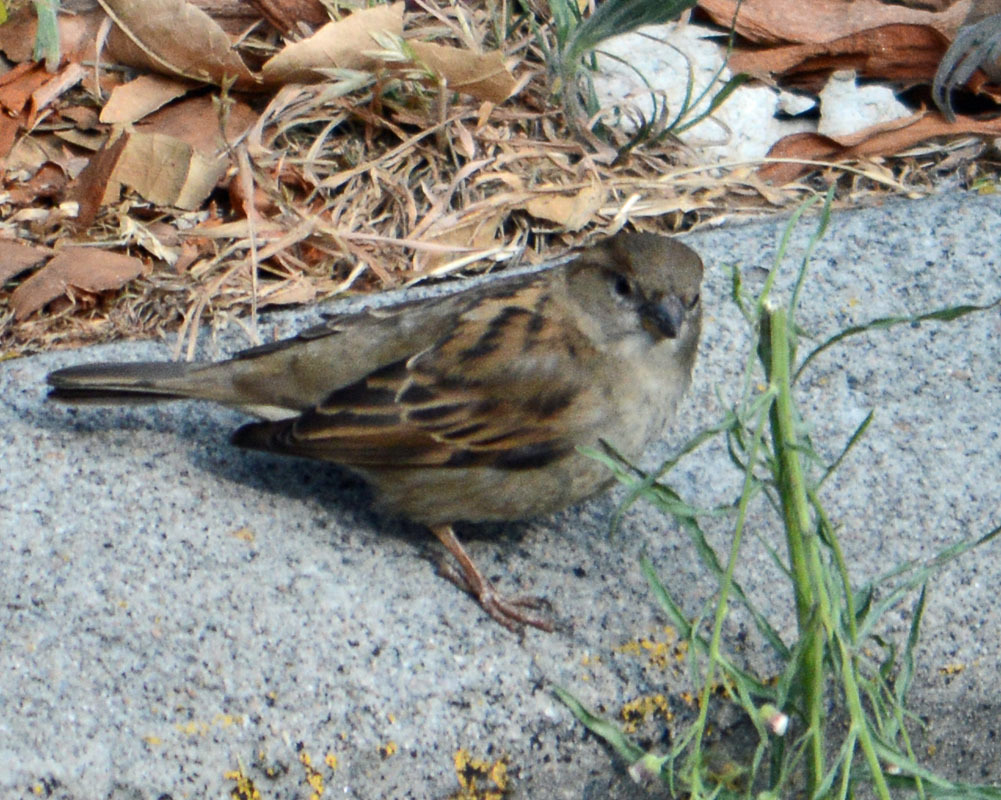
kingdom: Animalia
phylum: Chordata
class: Aves
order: Passeriformes
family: Passeridae
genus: Passer
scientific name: Passer domesticus
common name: House sparrow
